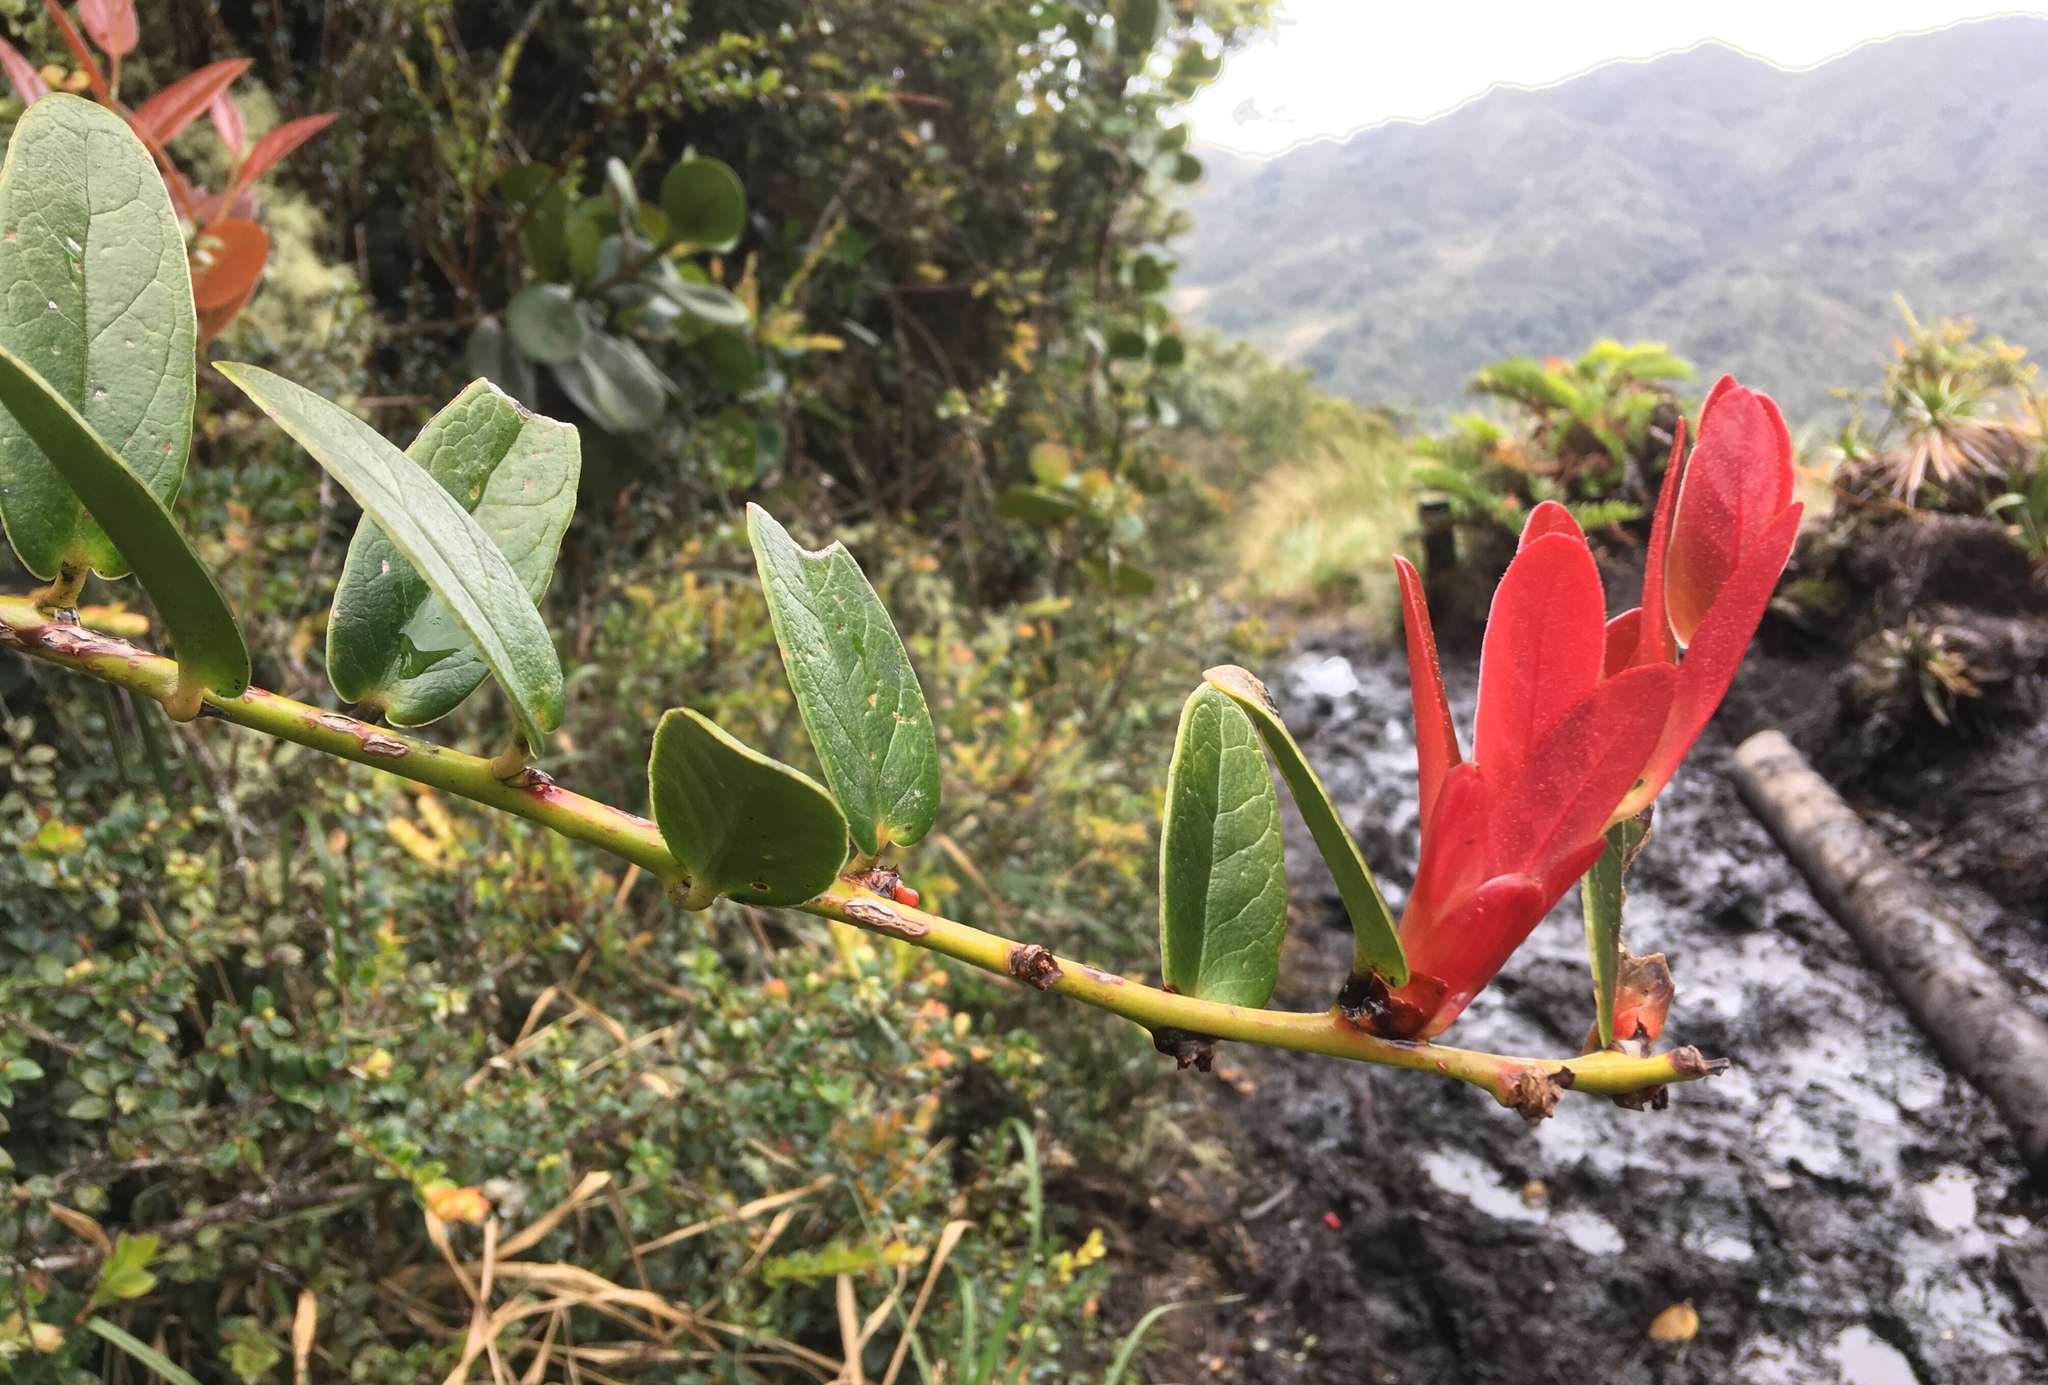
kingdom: Plantae
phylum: Tracheophyta
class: Magnoliopsida
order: Ericales
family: Ericaceae
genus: Macleania
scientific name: Macleania rupestris
